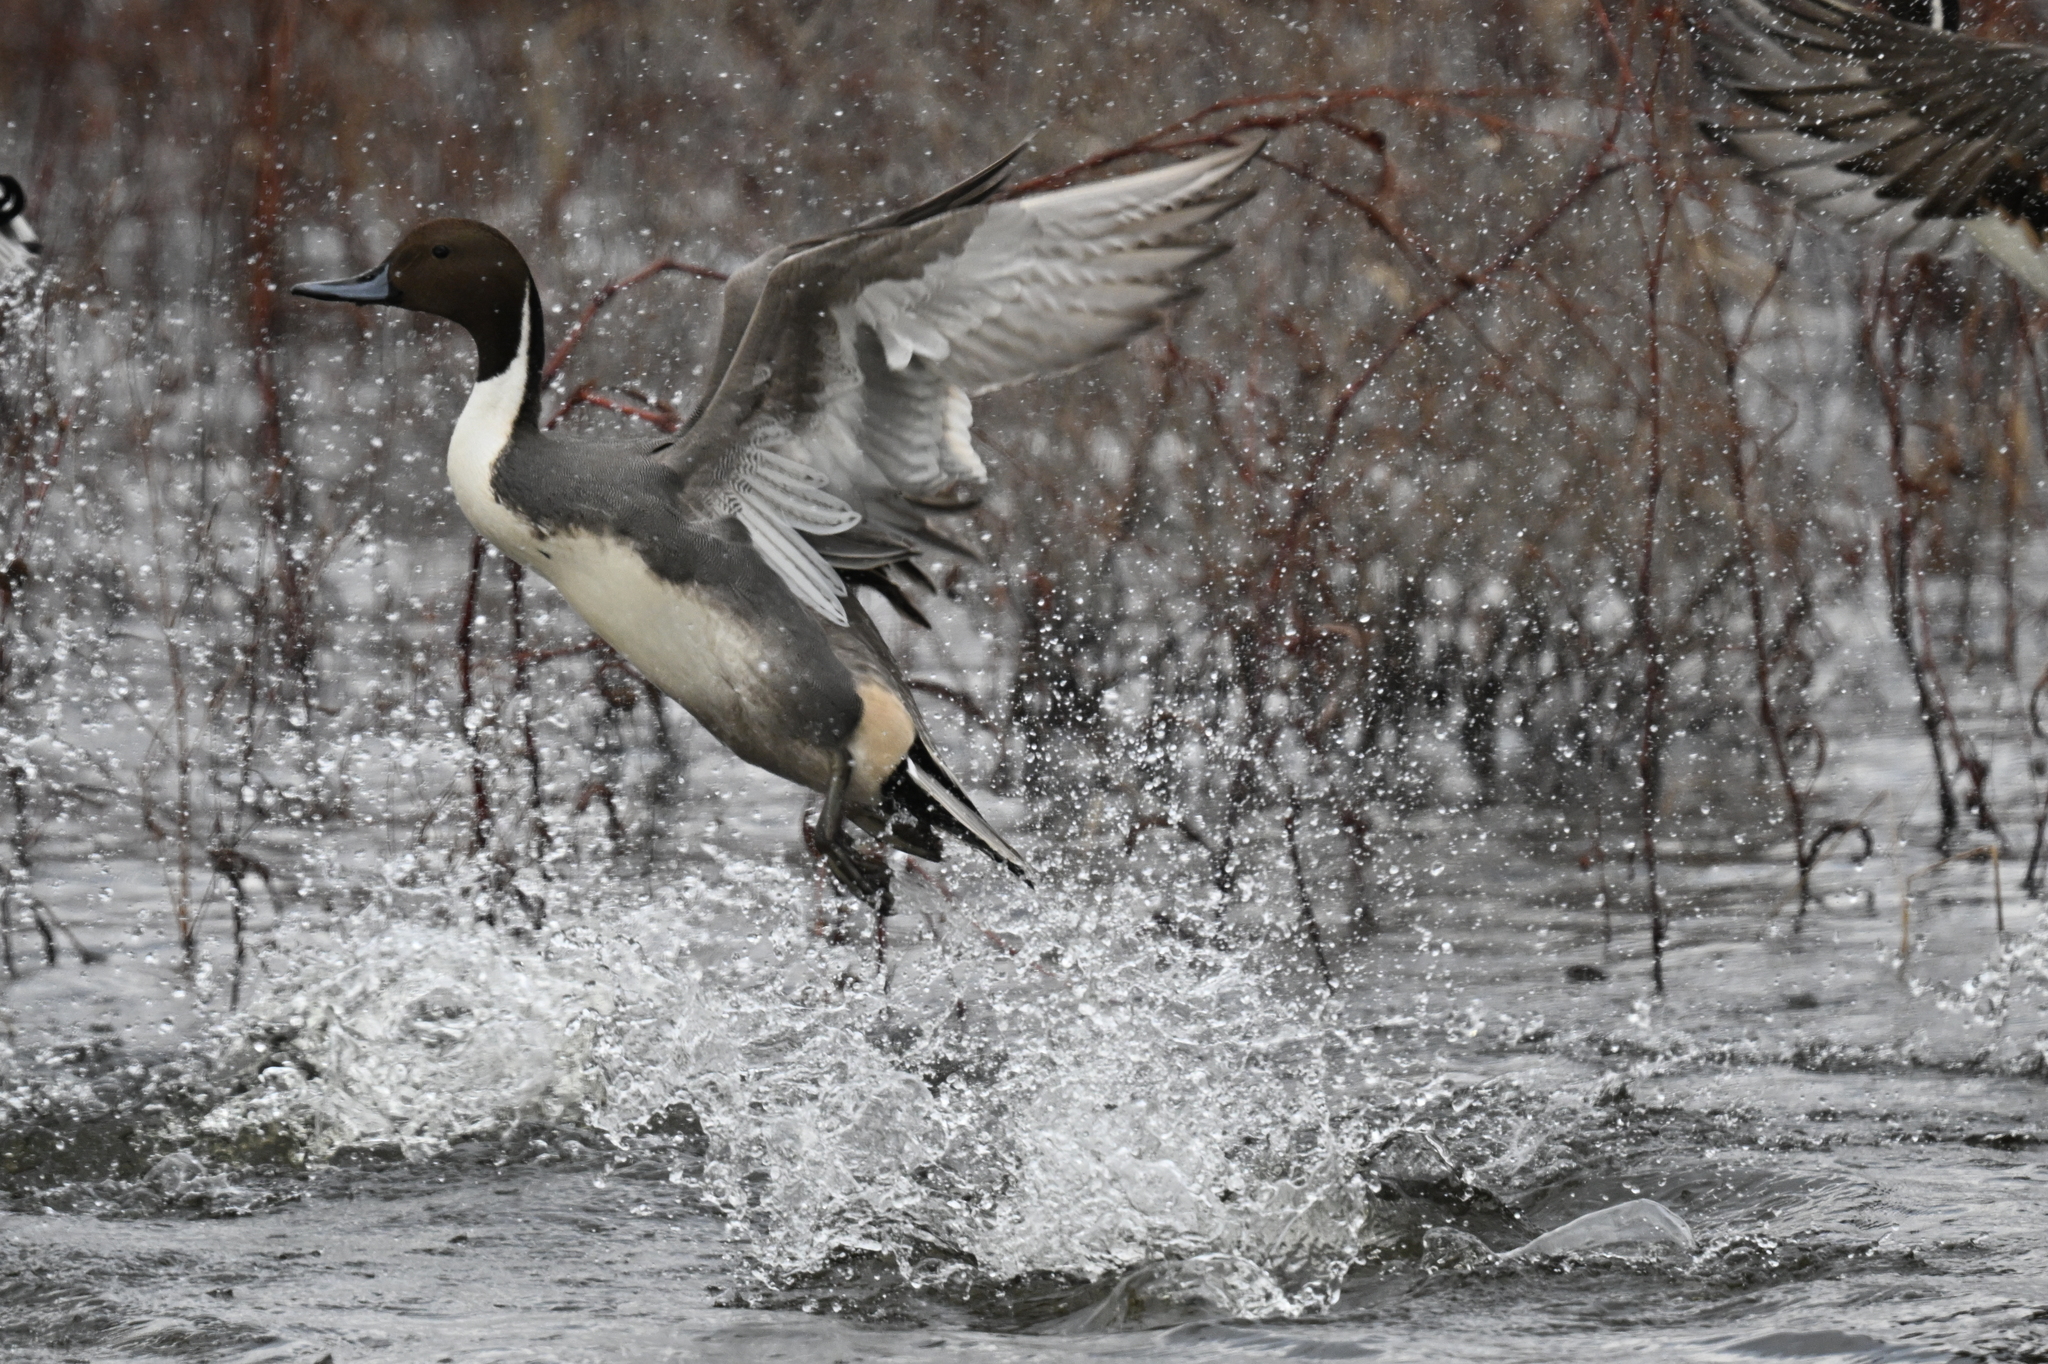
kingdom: Animalia
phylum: Chordata
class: Aves
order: Anseriformes
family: Anatidae
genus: Anas
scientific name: Anas acuta
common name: Northern pintail
